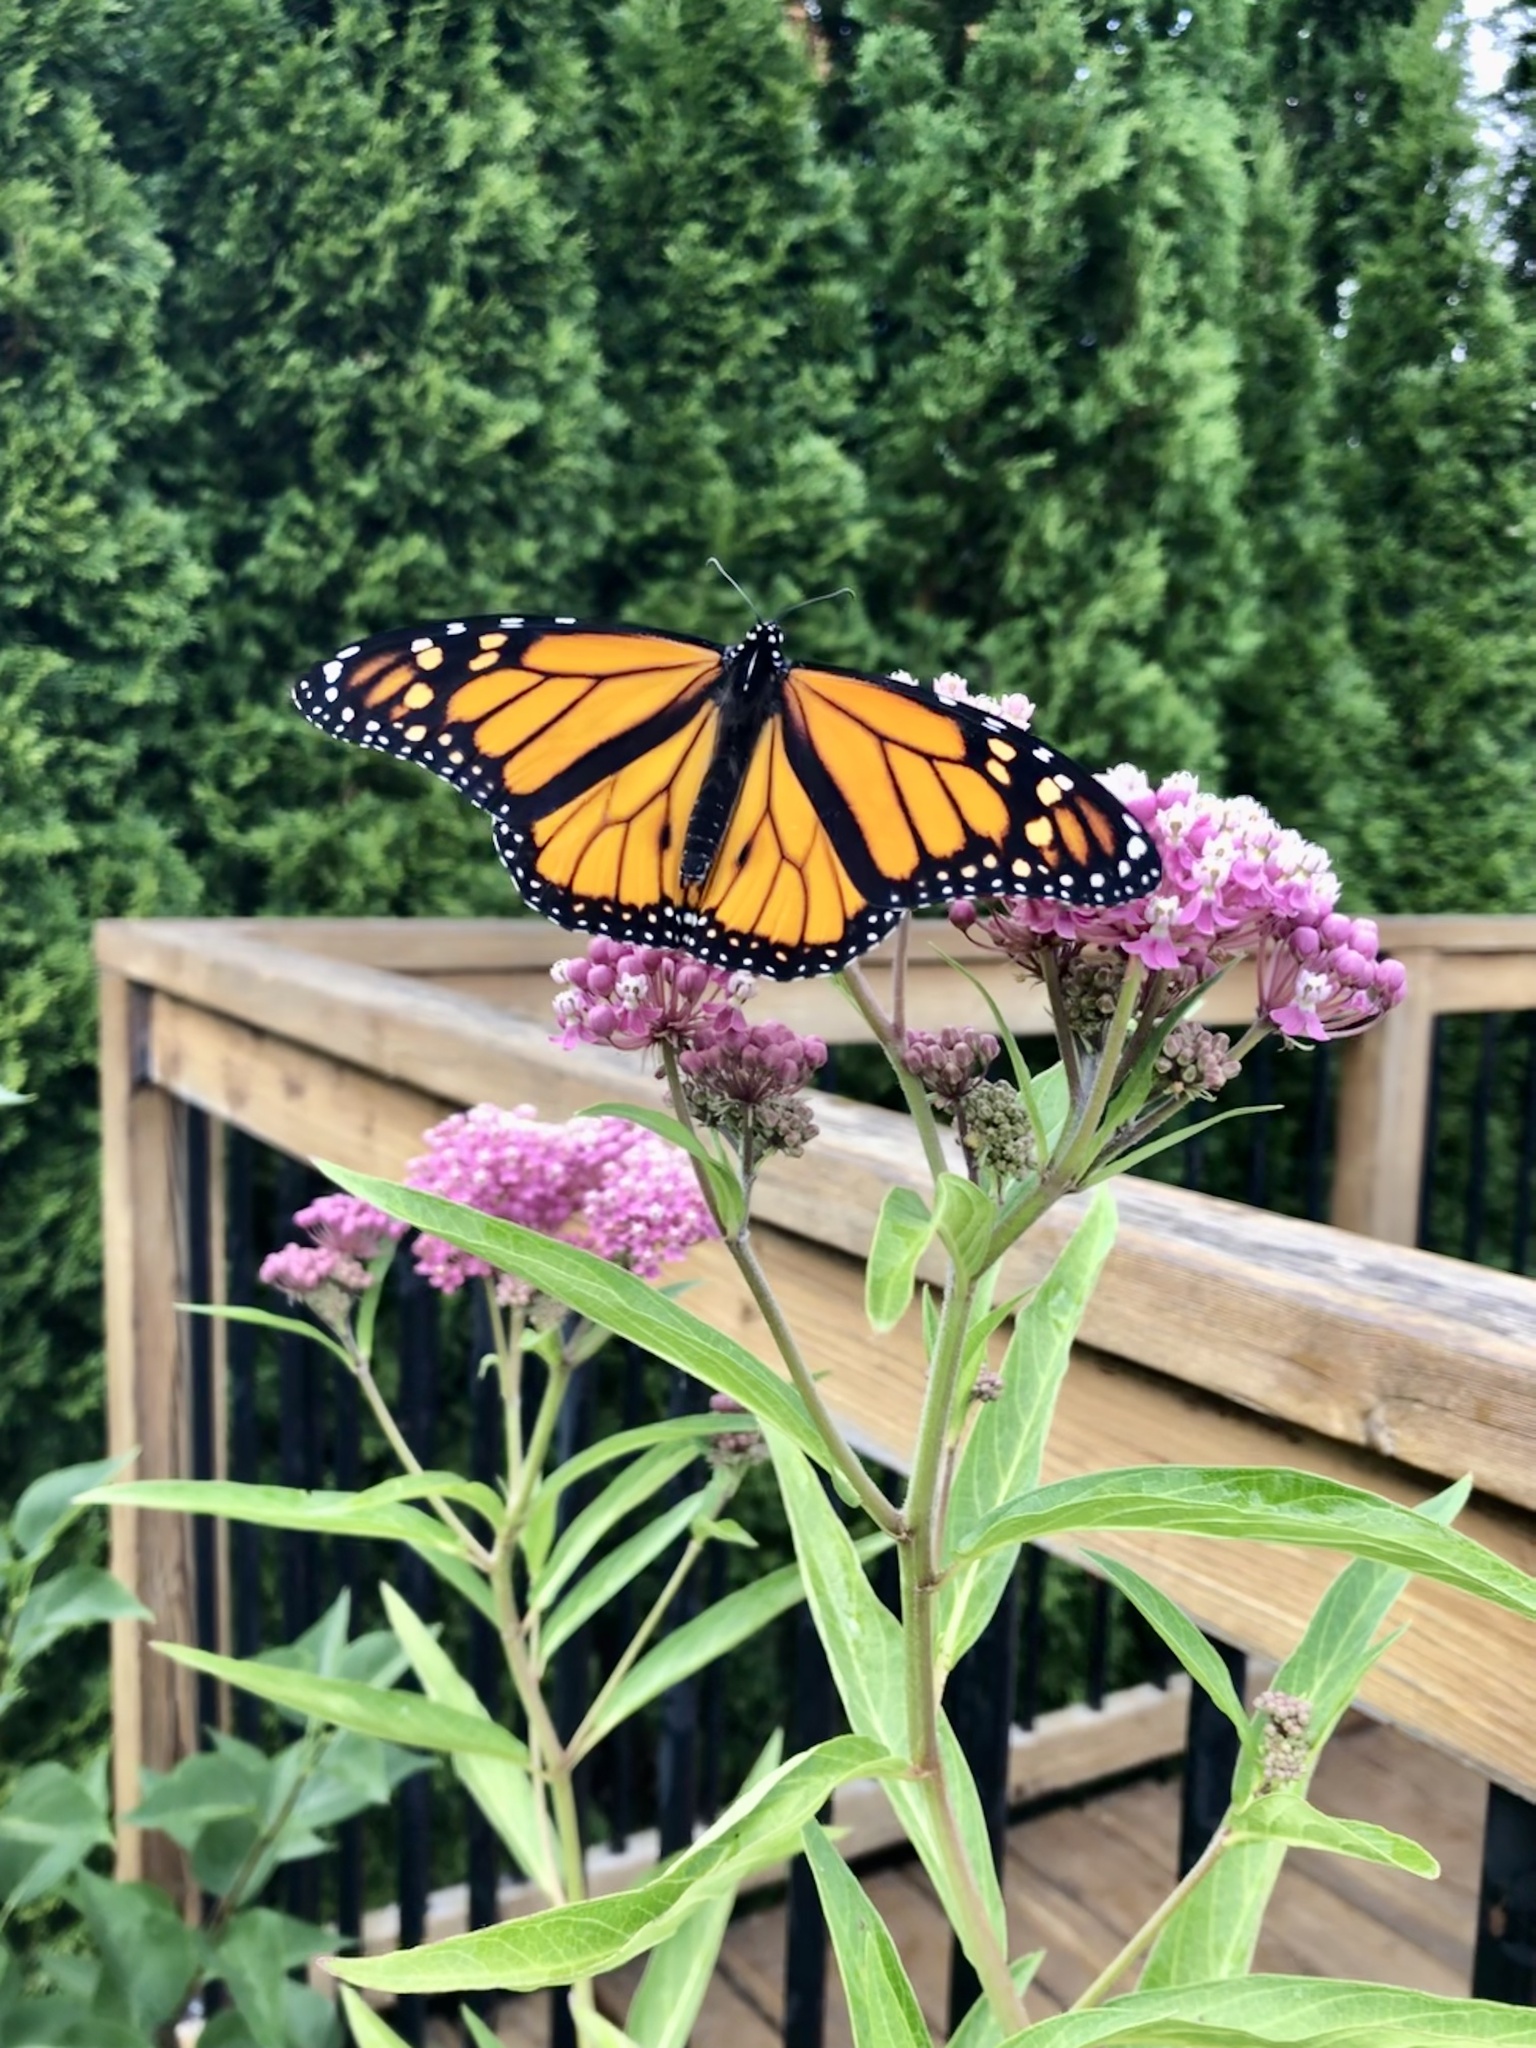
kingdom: Animalia
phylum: Arthropoda
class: Insecta
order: Lepidoptera
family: Nymphalidae
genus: Danaus
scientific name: Danaus plexippus
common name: Monarch
